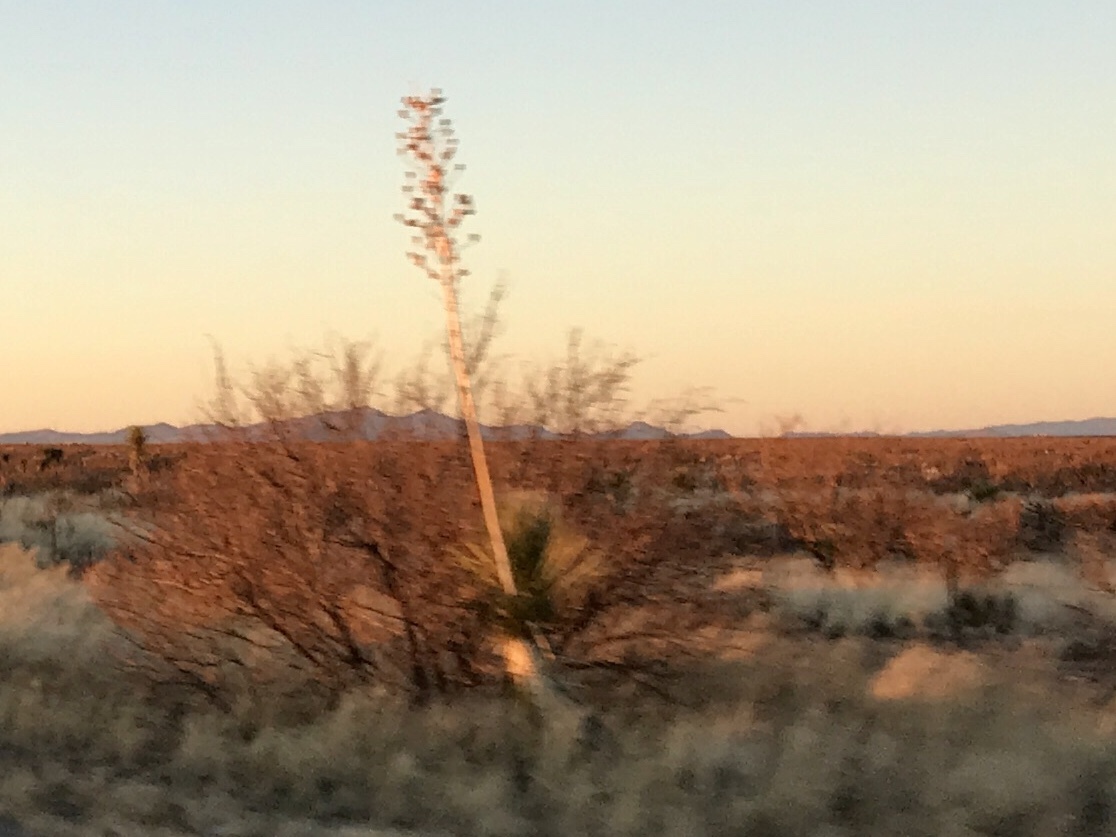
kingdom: Plantae
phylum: Tracheophyta
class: Liliopsida
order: Asparagales
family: Asparagaceae
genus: Yucca
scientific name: Yucca elata
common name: Palmella
